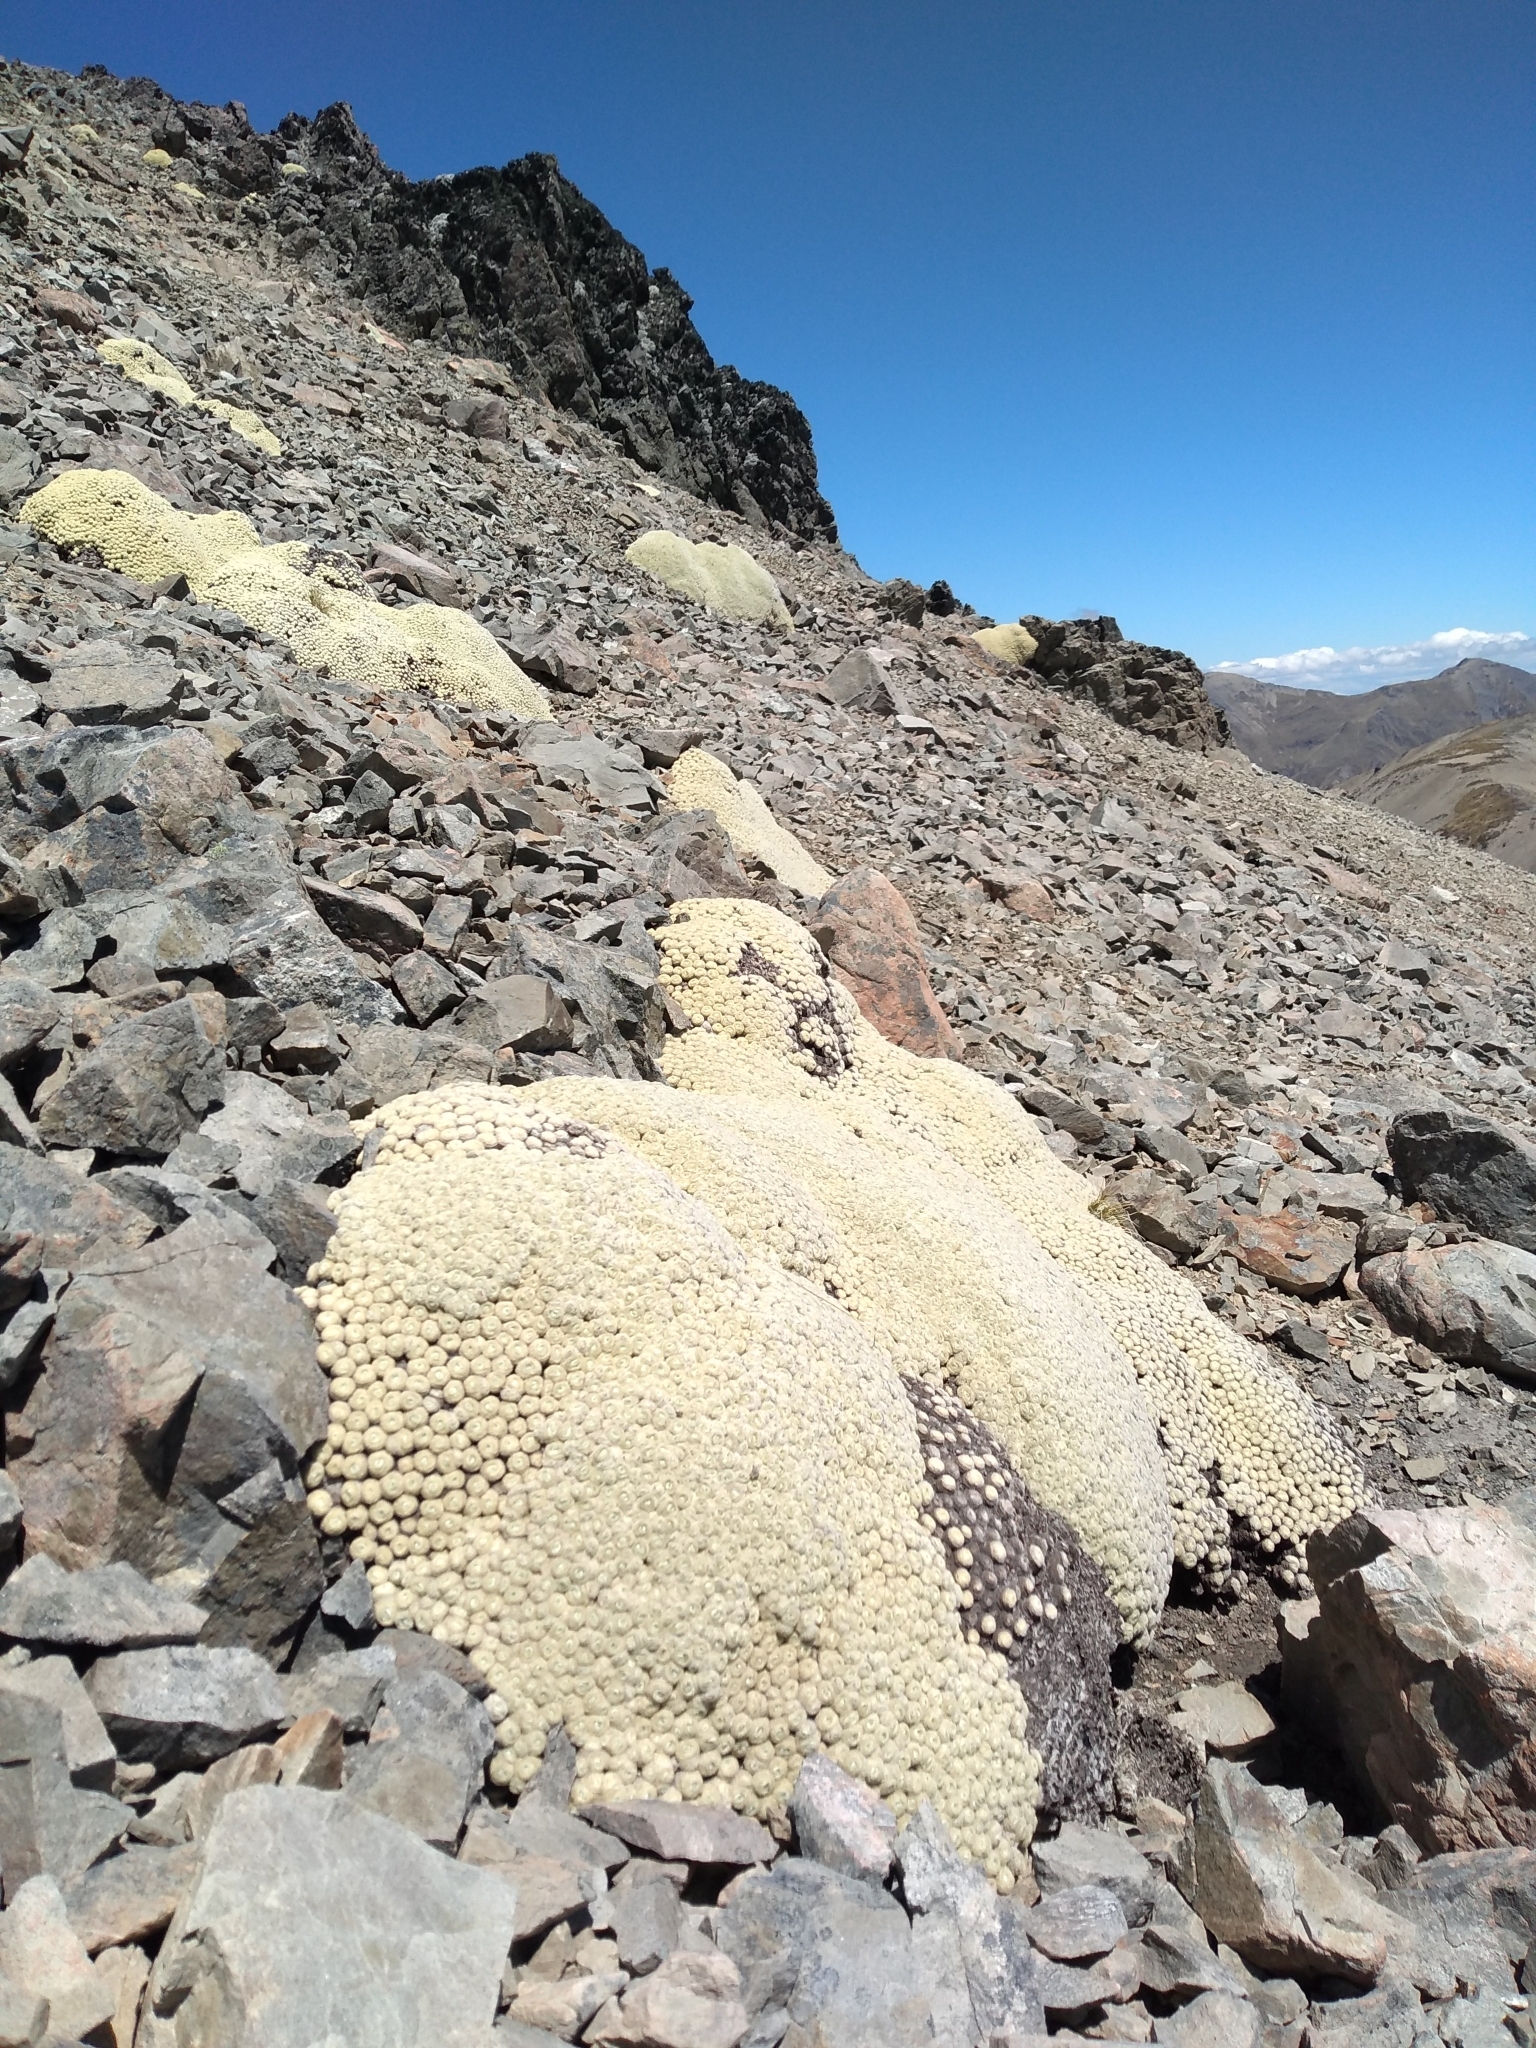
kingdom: Plantae
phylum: Tracheophyta
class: Magnoliopsida
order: Asterales
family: Asteraceae
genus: Haastia
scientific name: Haastia pulvinaris
